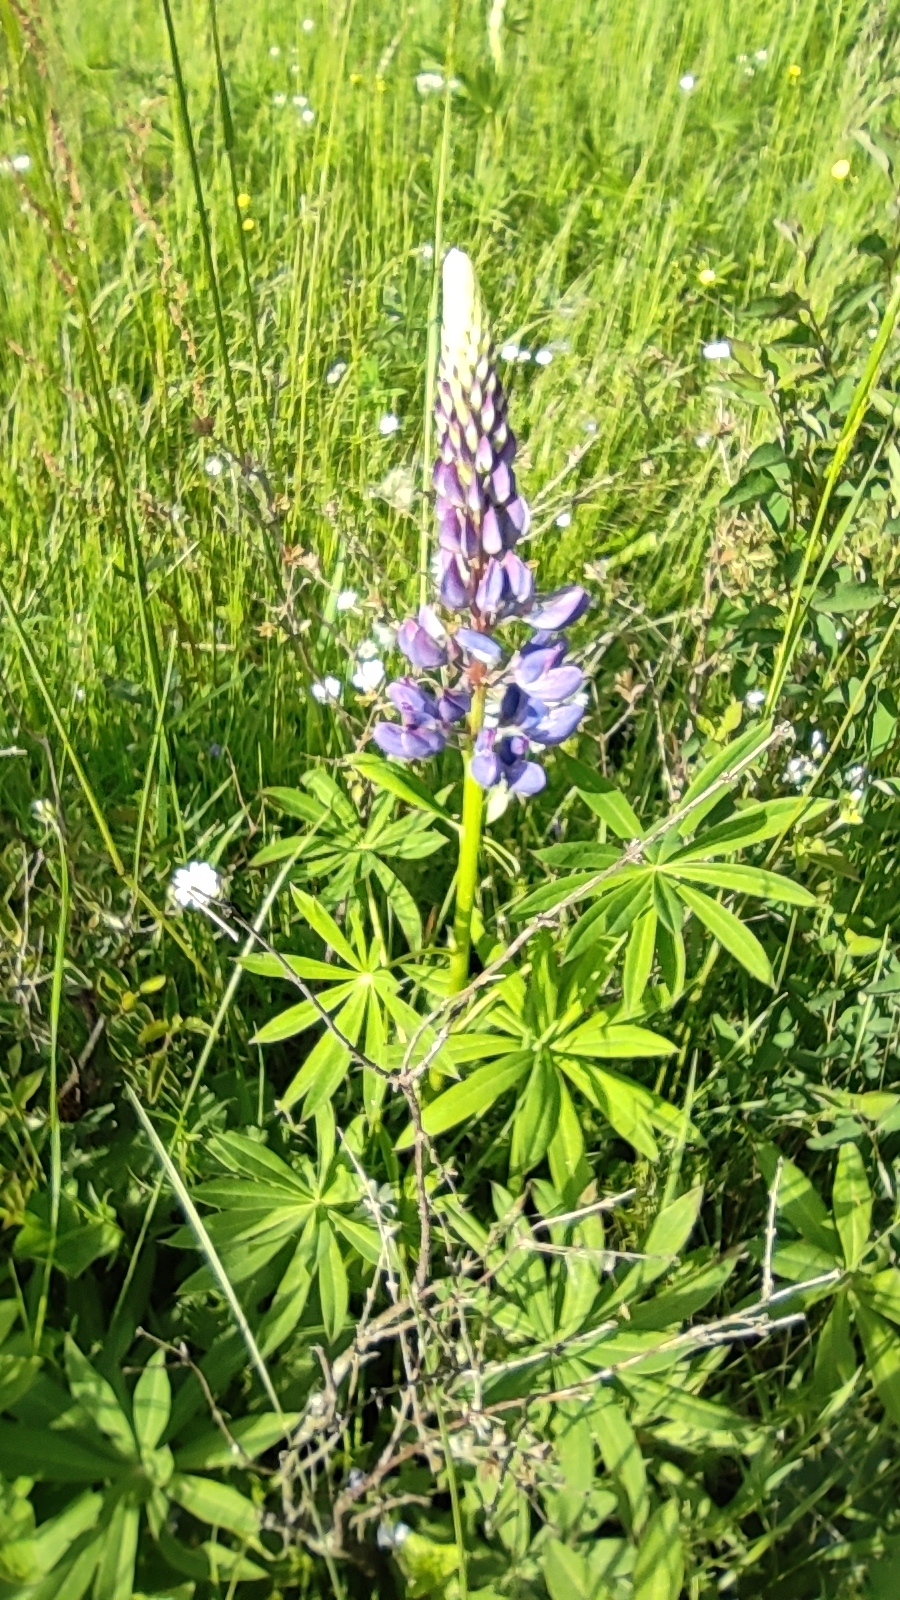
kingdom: Plantae
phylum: Tracheophyta
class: Magnoliopsida
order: Fabales
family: Fabaceae
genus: Lupinus
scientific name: Lupinus polyphyllus
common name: Garden lupin
